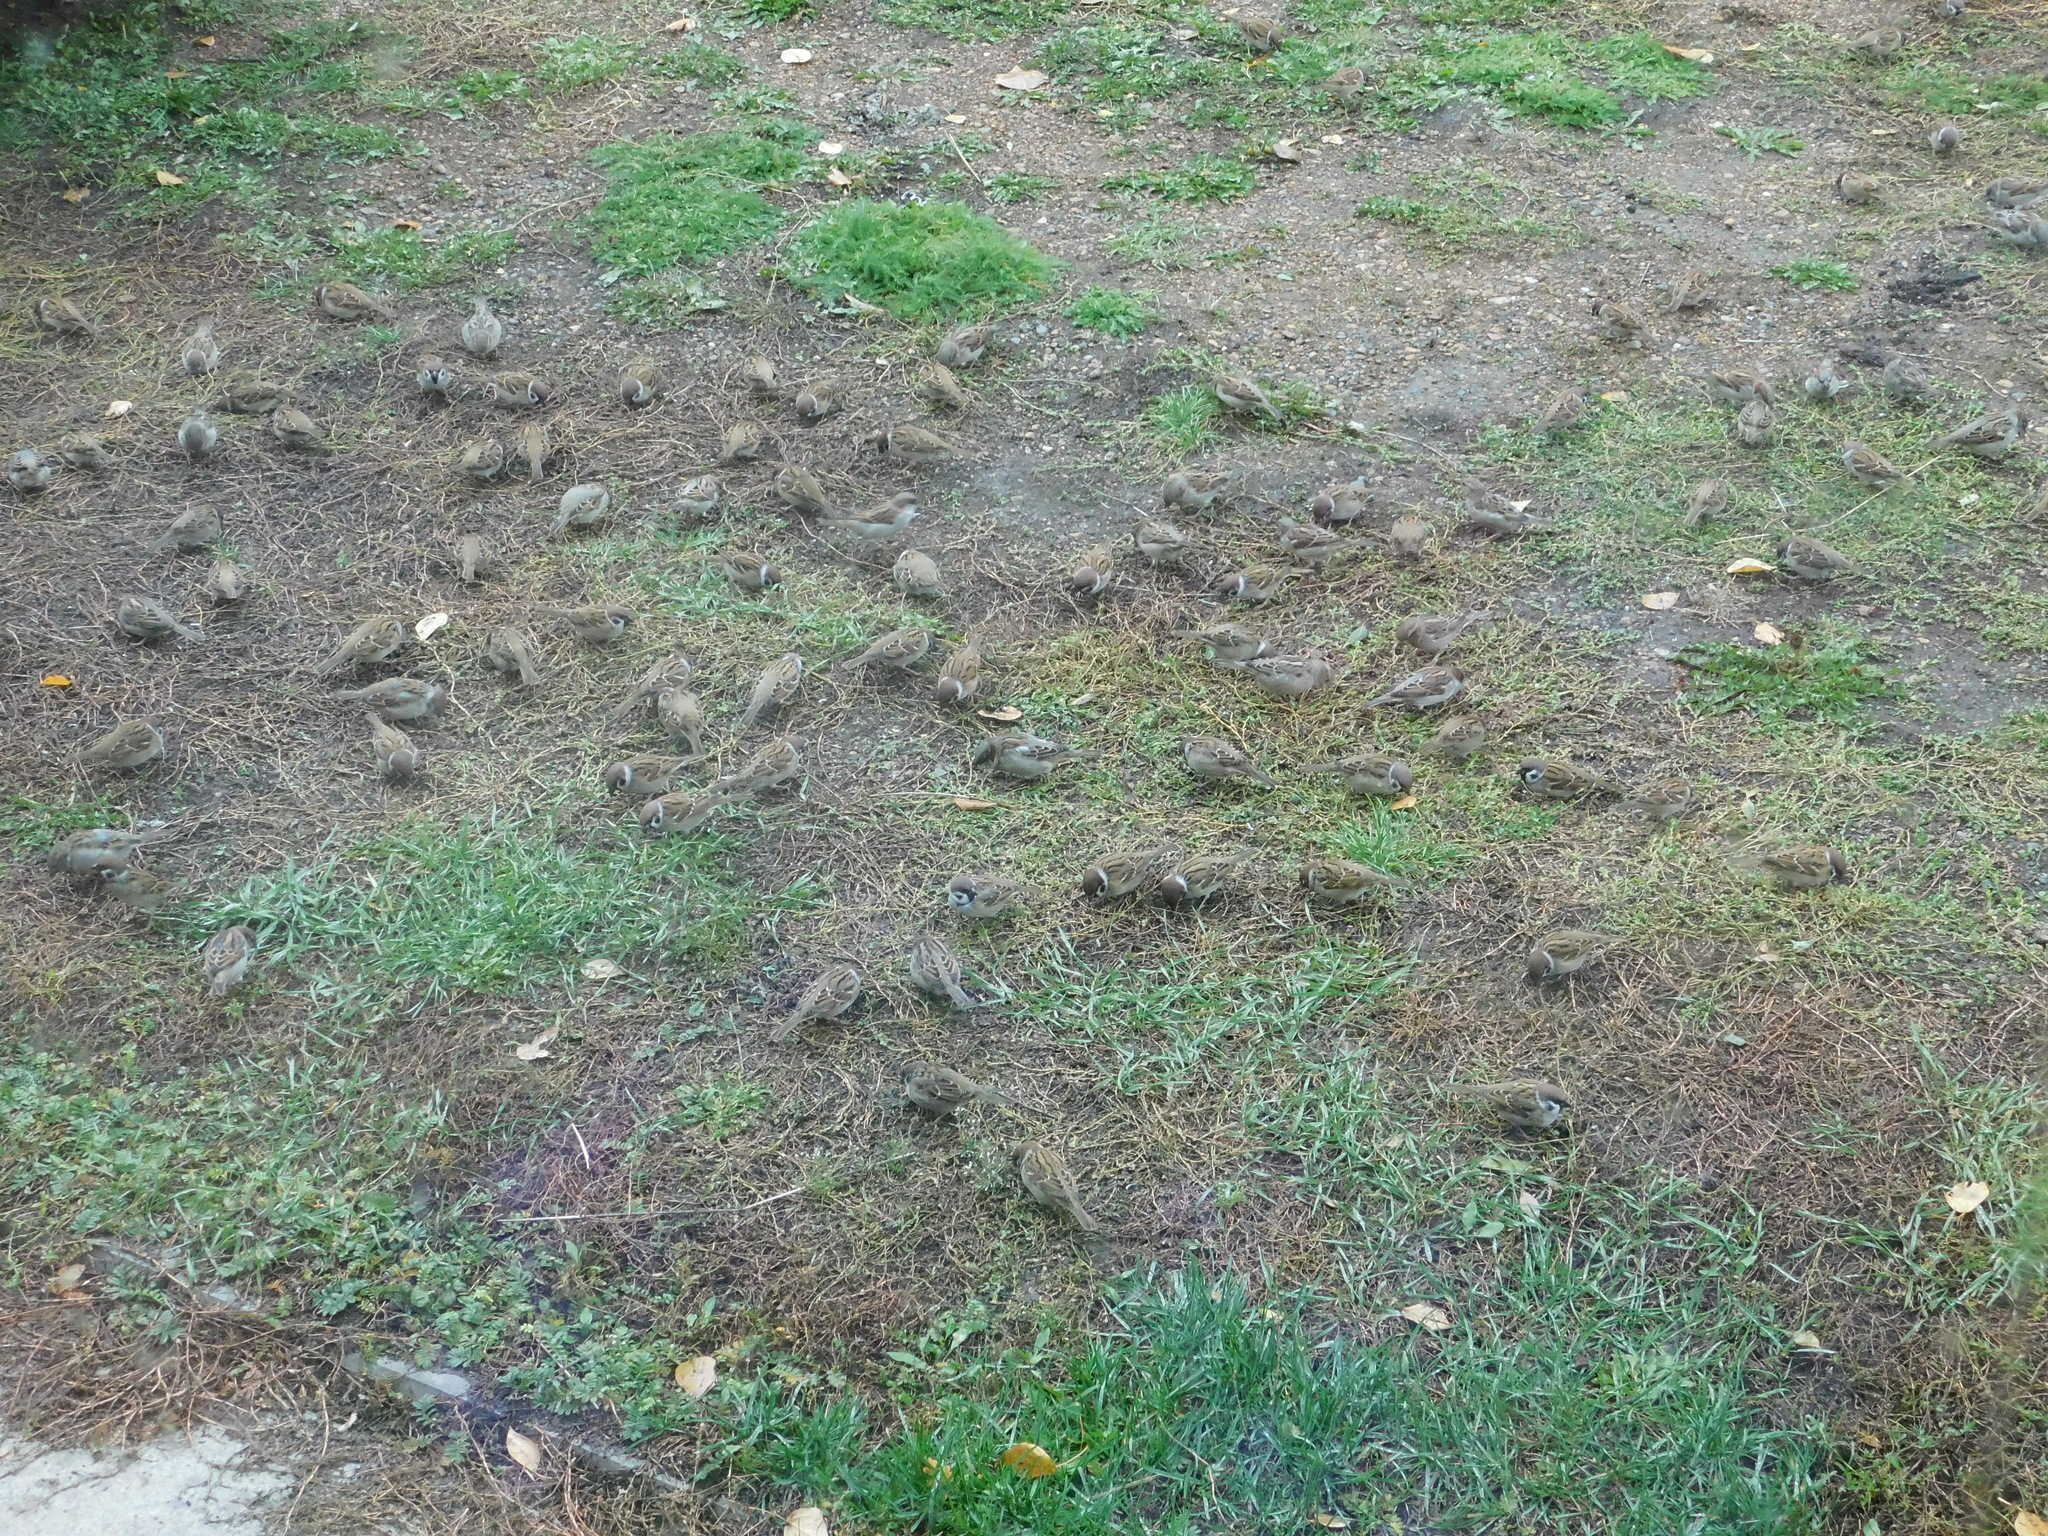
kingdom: Animalia
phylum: Chordata
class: Aves
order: Passeriformes
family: Passeridae
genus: Passer
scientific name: Passer montanus
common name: Eurasian tree sparrow
